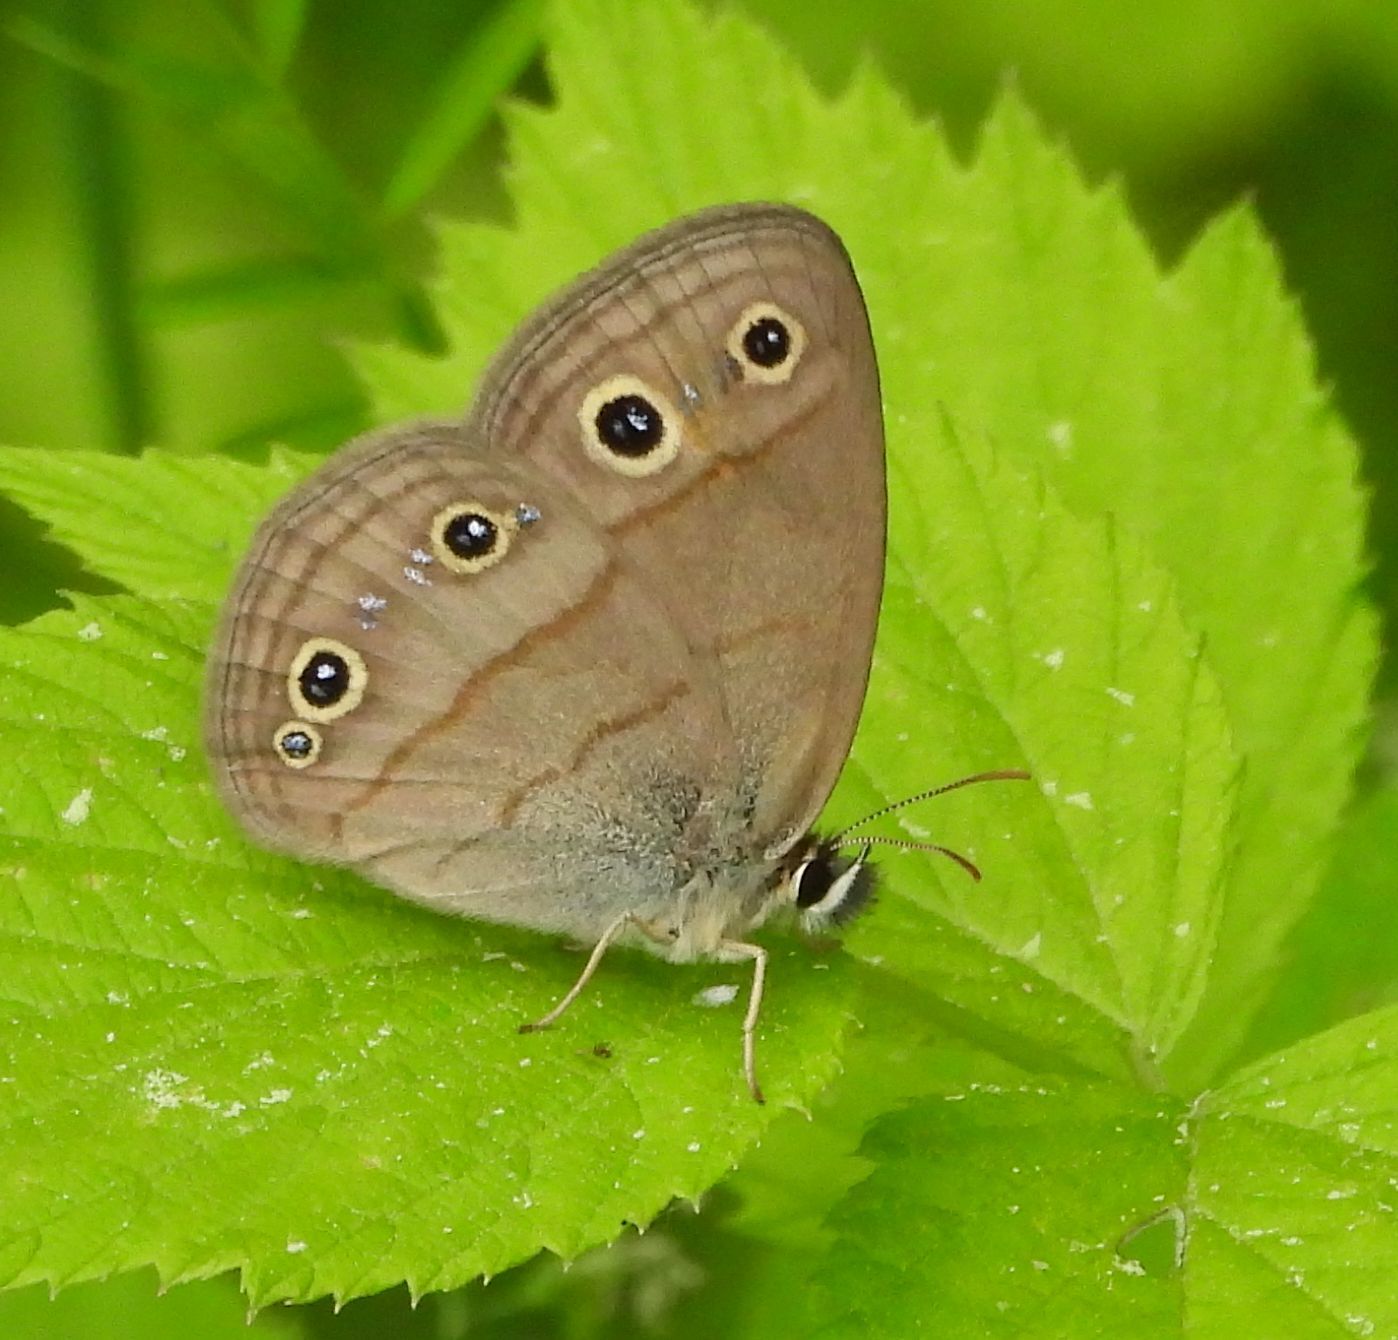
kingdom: Animalia
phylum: Arthropoda
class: Insecta
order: Lepidoptera
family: Nymphalidae
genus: Euptychia
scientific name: Euptychia cymela
